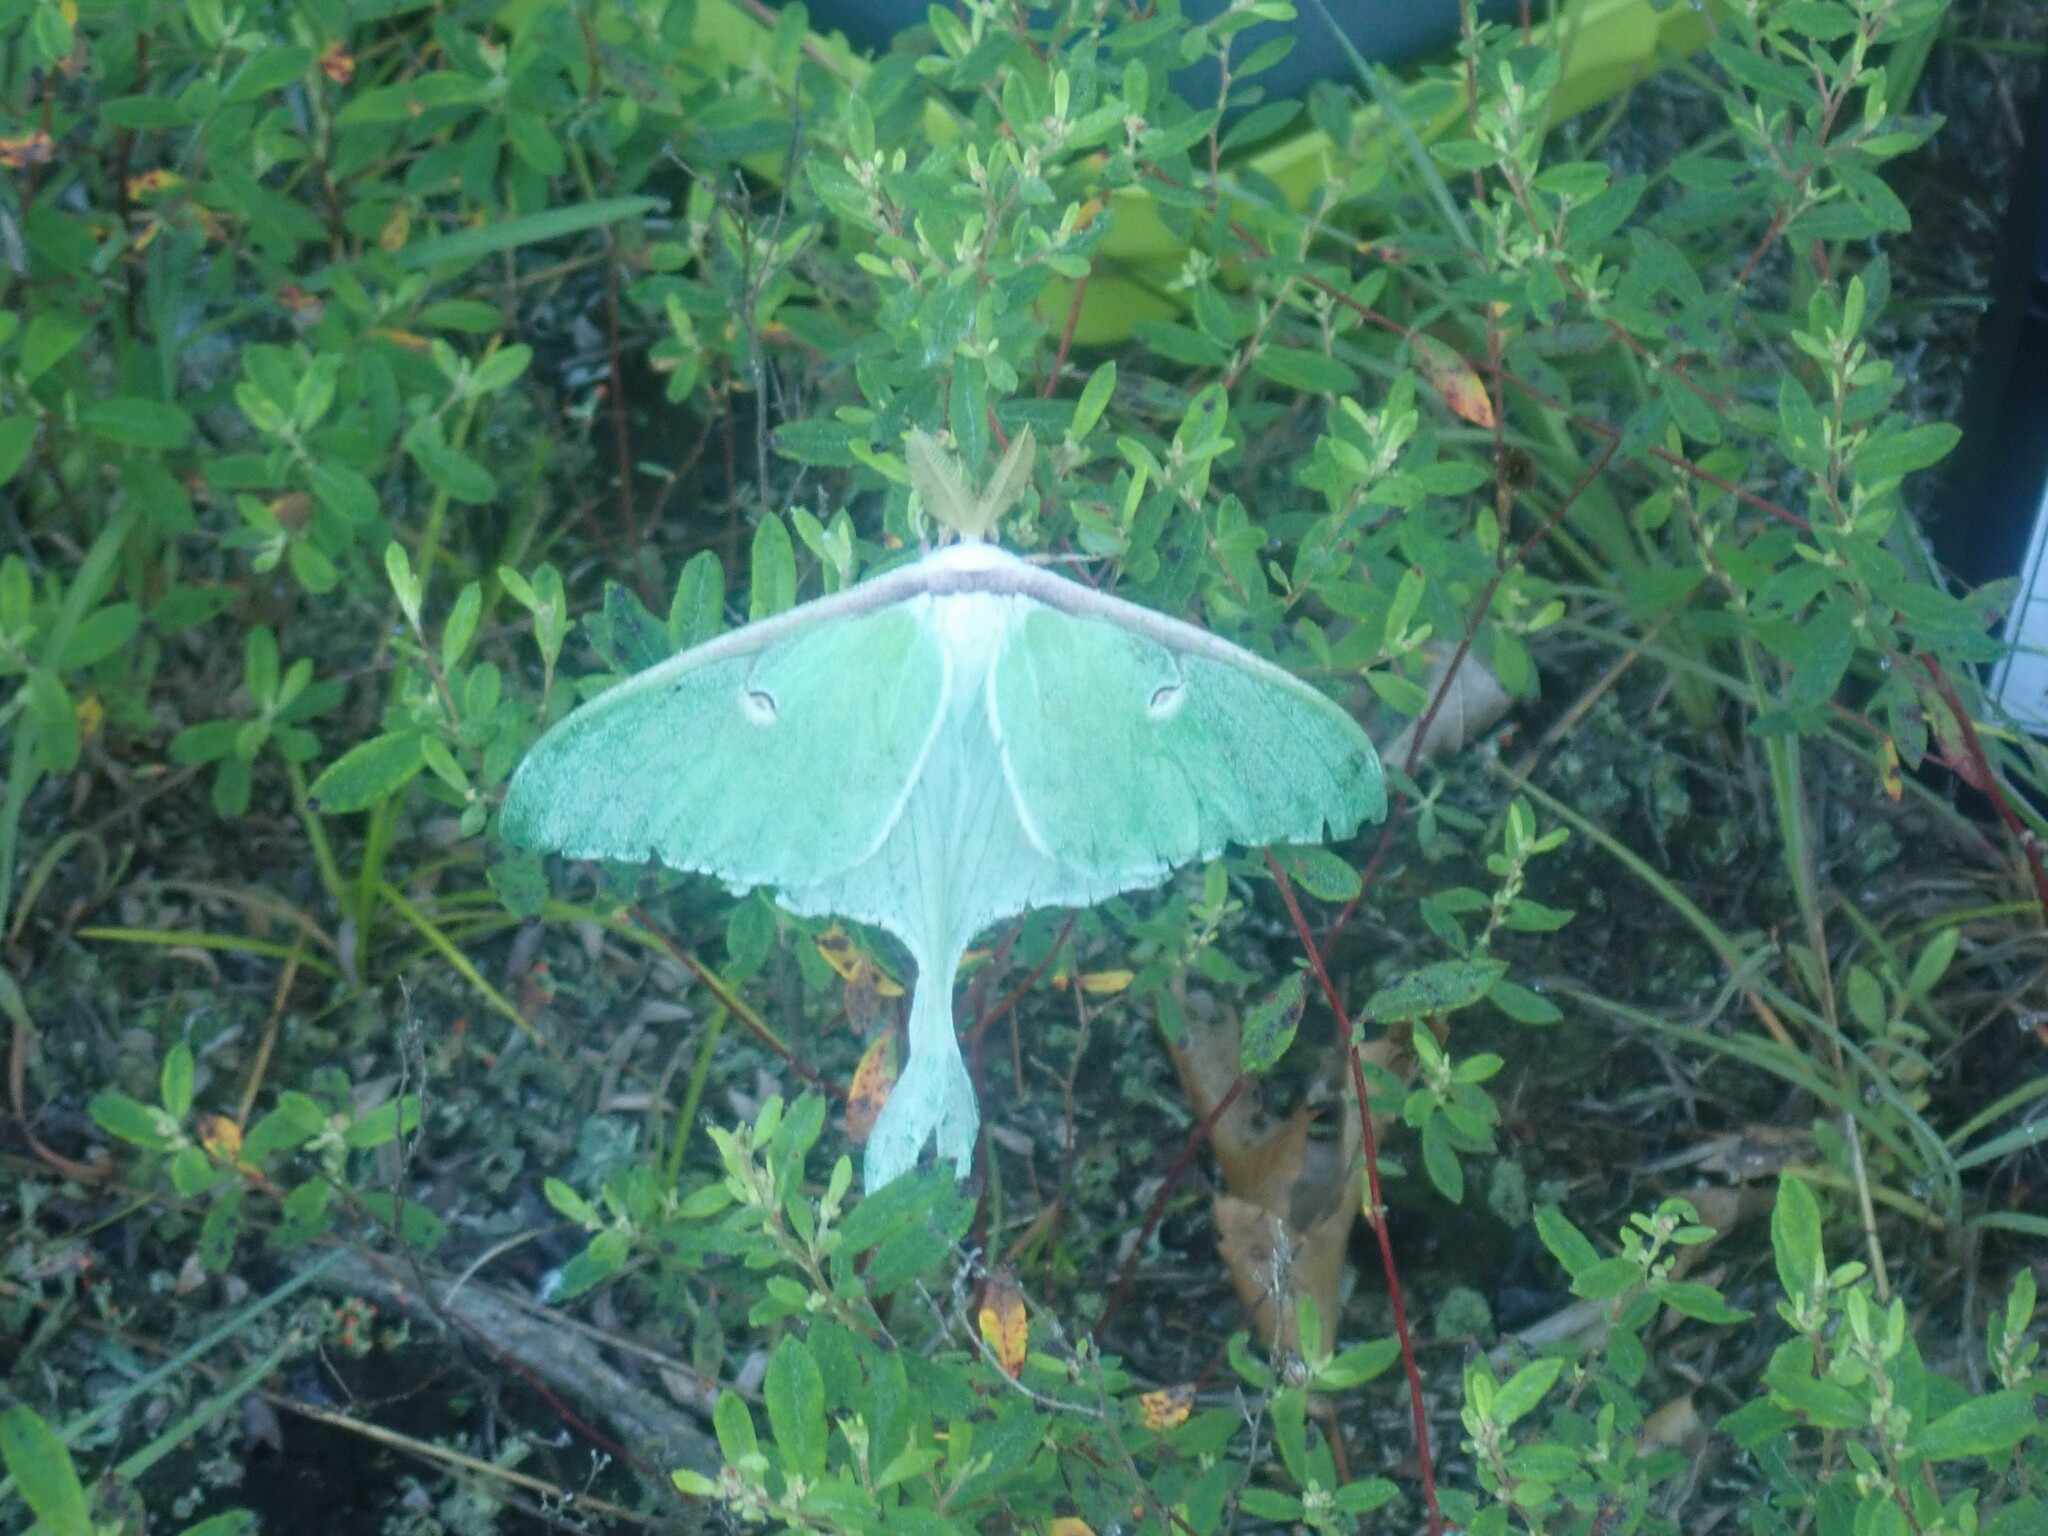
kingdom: Animalia
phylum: Arthropoda
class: Insecta
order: Lepidoptera
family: Saturniidae
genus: Actias
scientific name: Actias luna
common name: Luna moth
